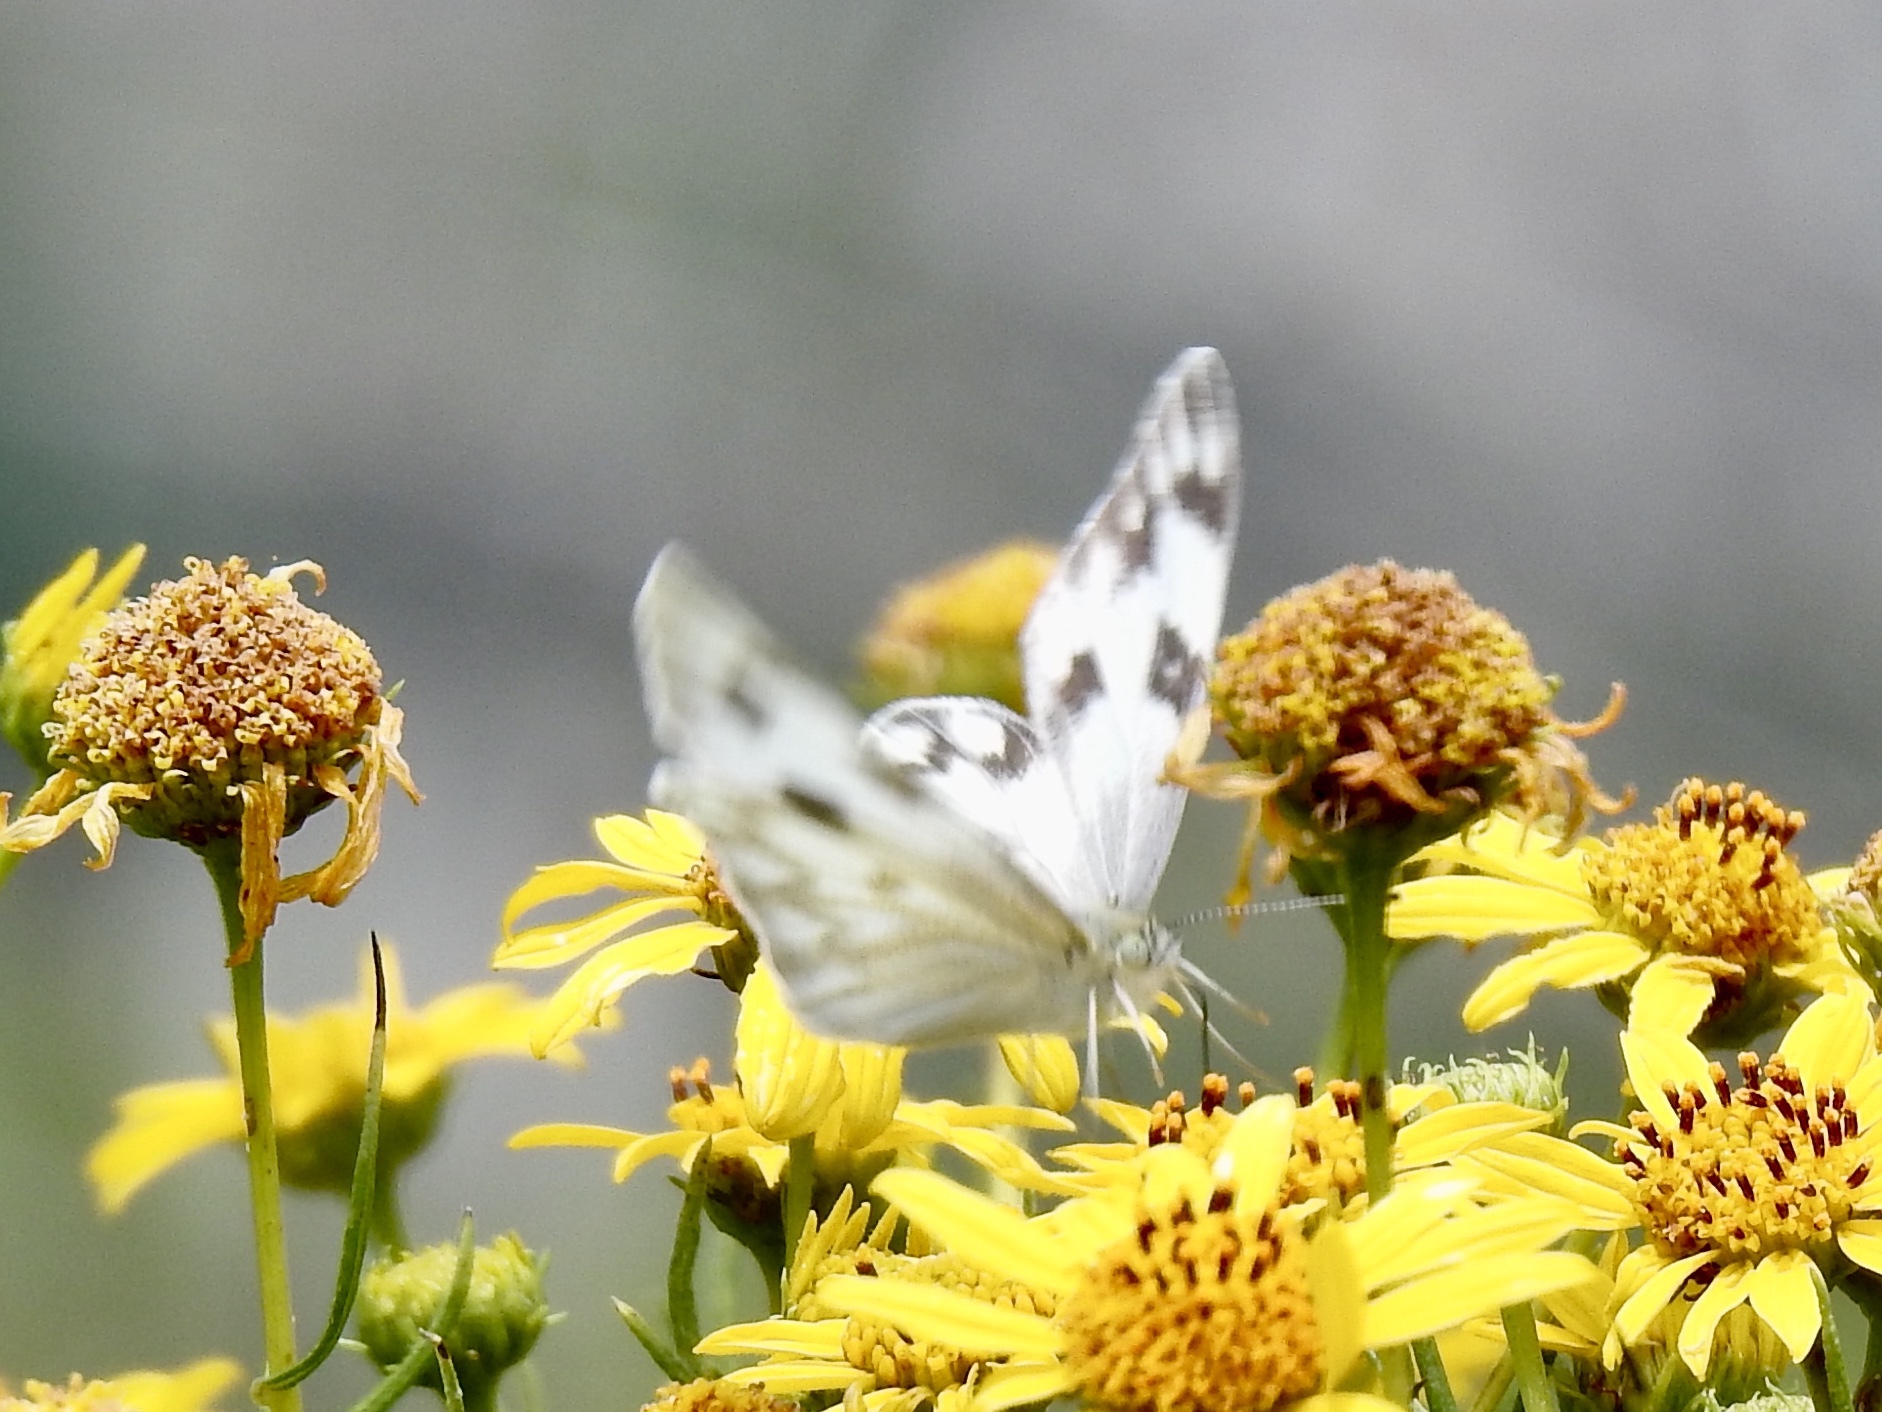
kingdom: Animalia
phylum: Arthropoda
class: Insecta
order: Lepidoptera
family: Pieridae
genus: Pontia
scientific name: Pontia protodice
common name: Checkered white
